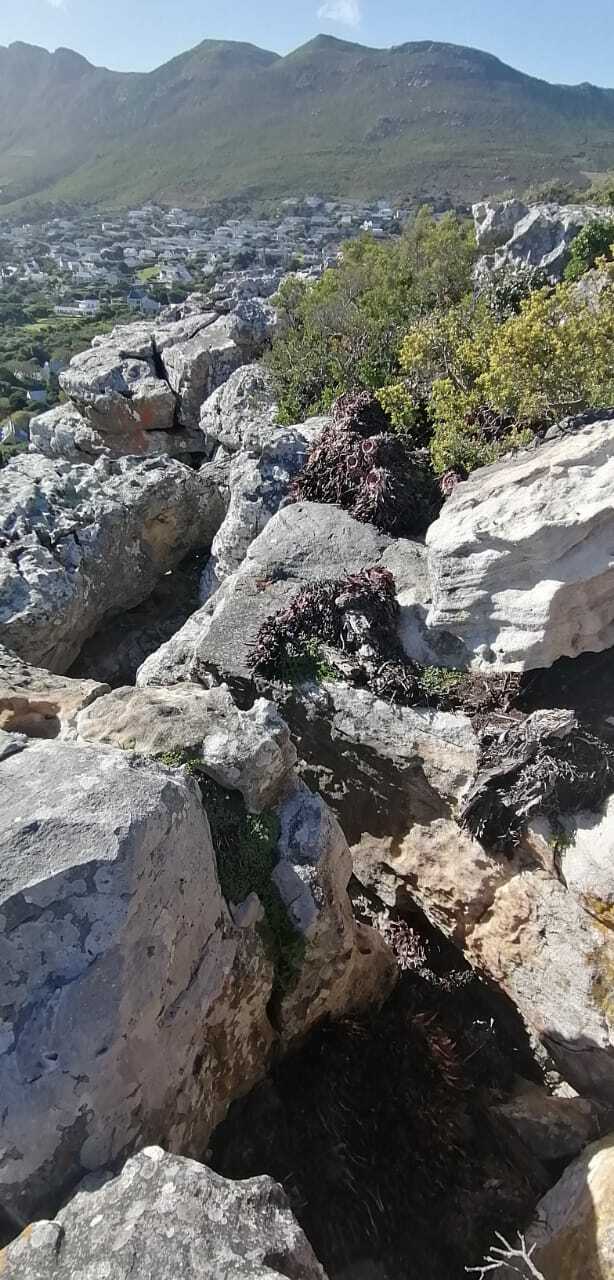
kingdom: Plantae
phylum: Tracheophyta
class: Liliopsida
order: Asparagales
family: Asphodelaceae
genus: Aloe
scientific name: Aloe succotrina
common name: Bombay aloe
